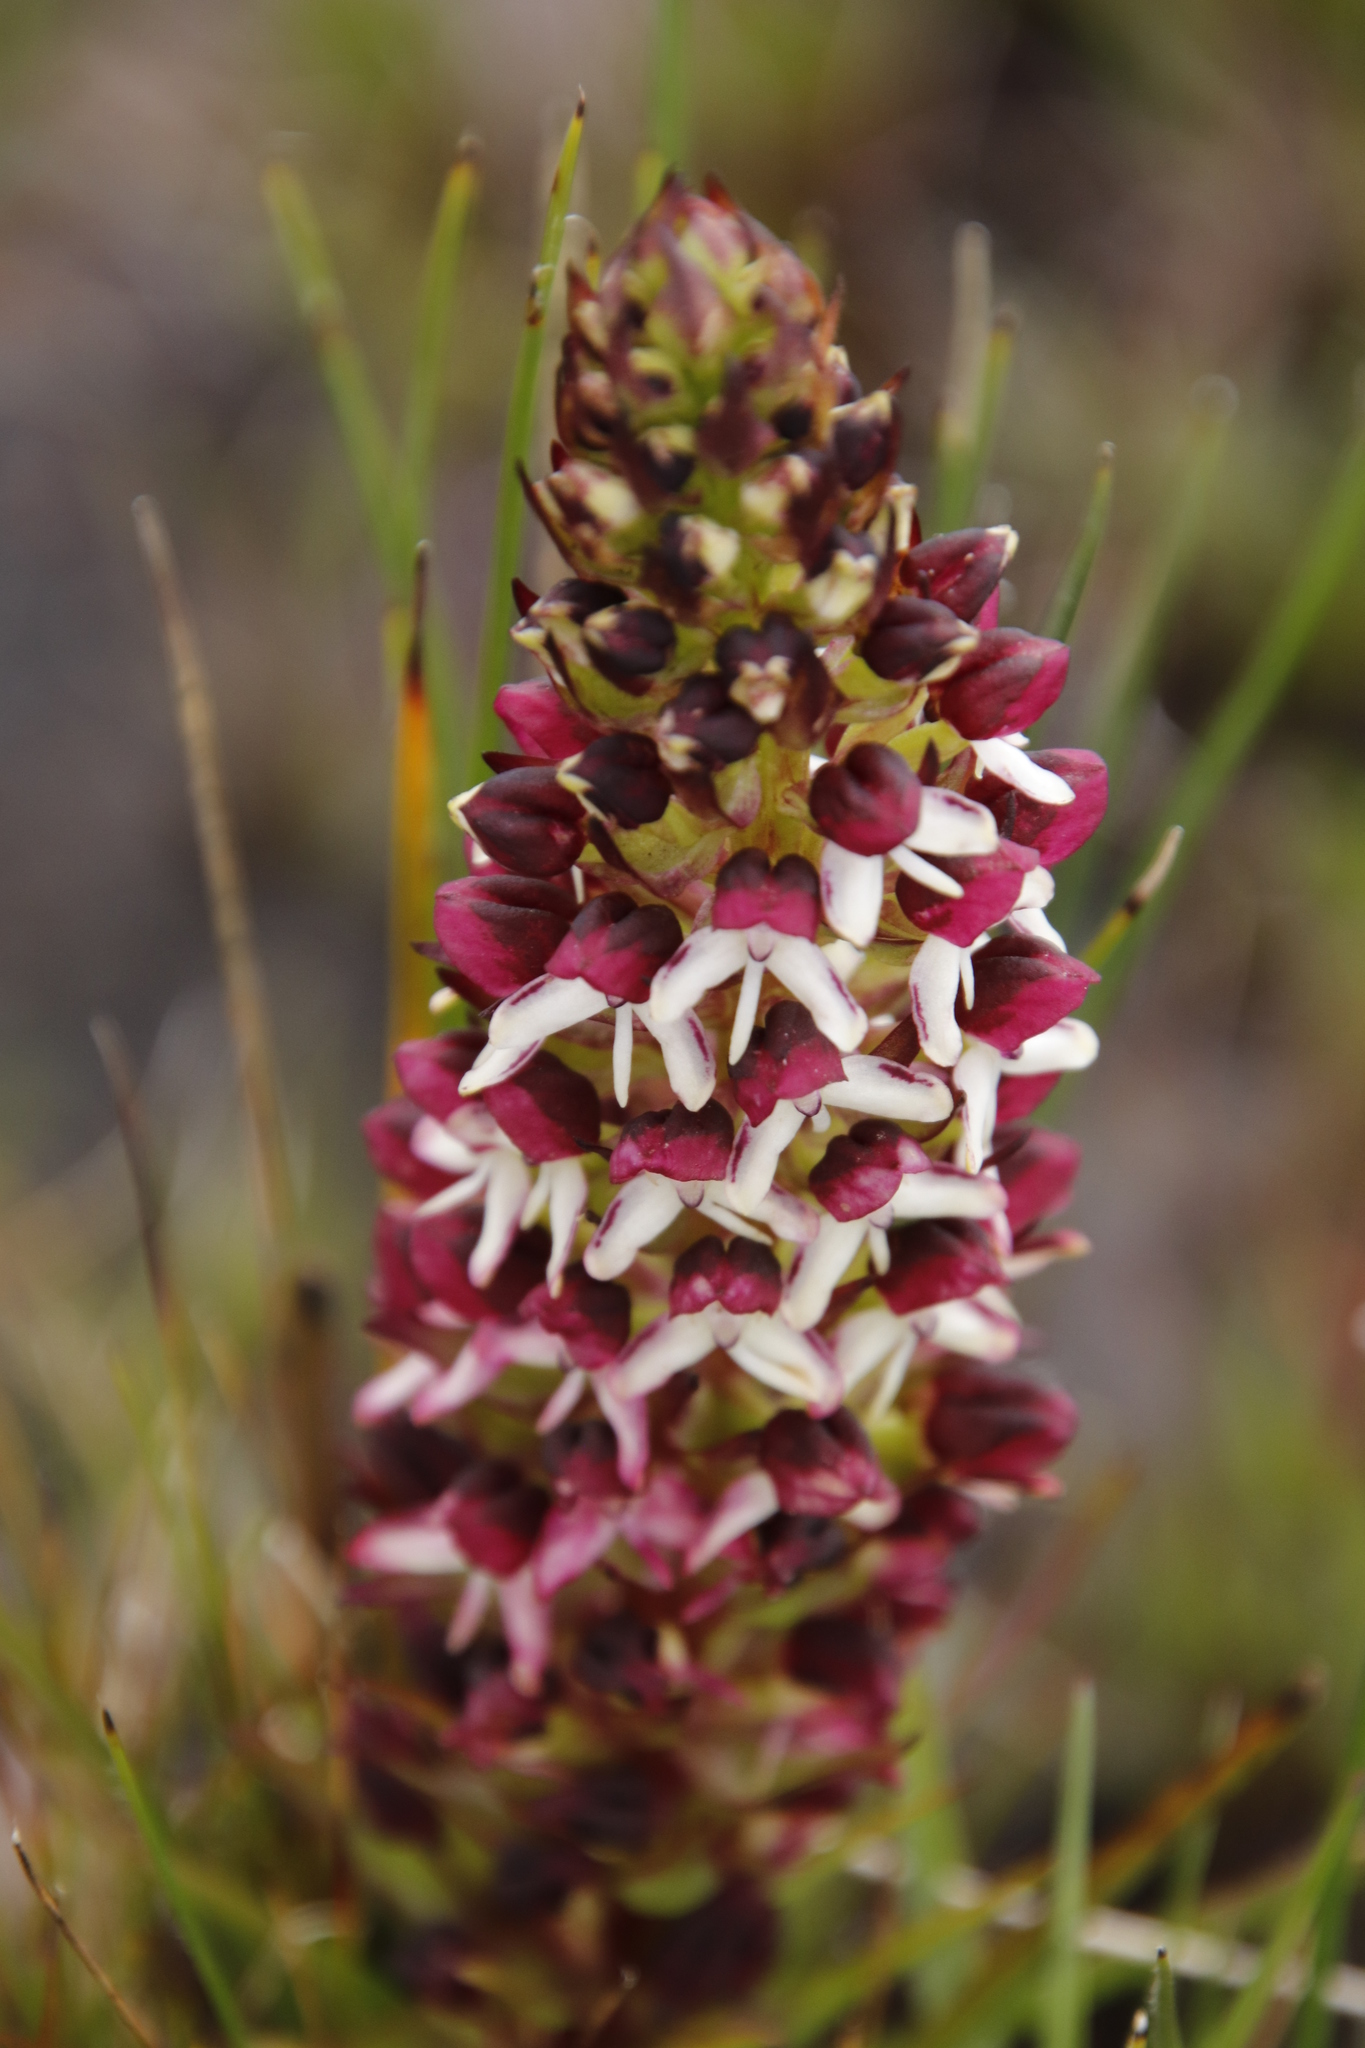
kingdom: Plantae
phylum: Tracheophyta
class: Liliopsida
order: Asparagales
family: Orchidaceae
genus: Disa
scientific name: Disa albomagentea
